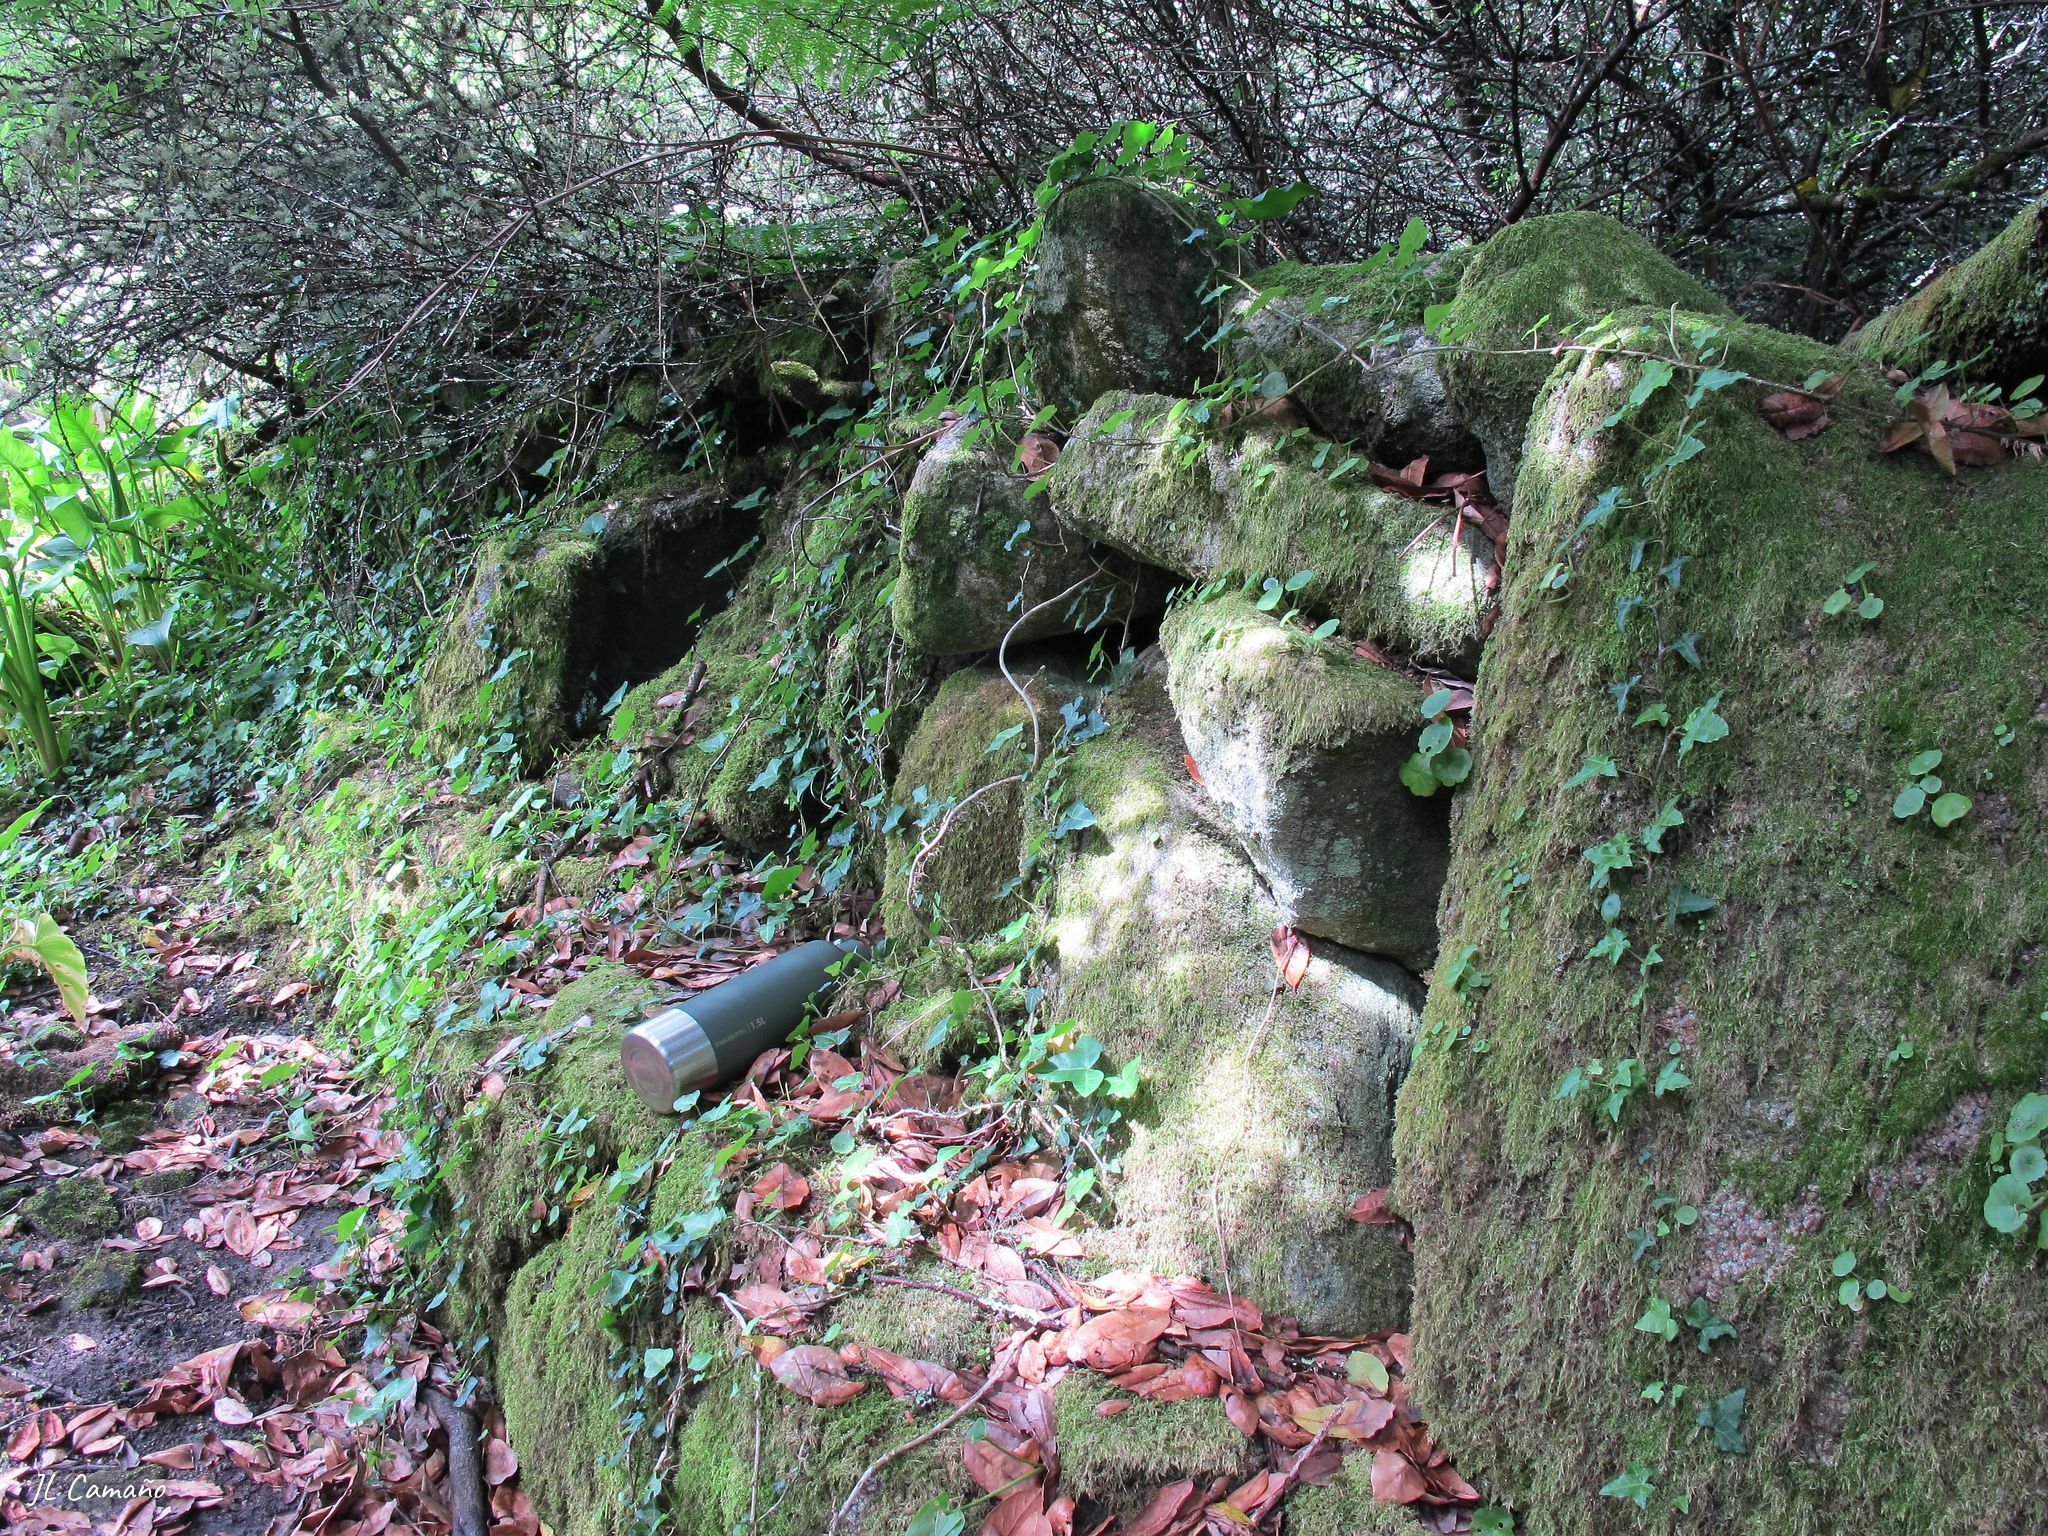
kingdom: Plantae
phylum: Bryophyta
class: Bryopsida
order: Hypnales
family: Brachytheciaceae
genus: Kindbergia
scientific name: Kindbergia praelonga
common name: Slender beaked moss
